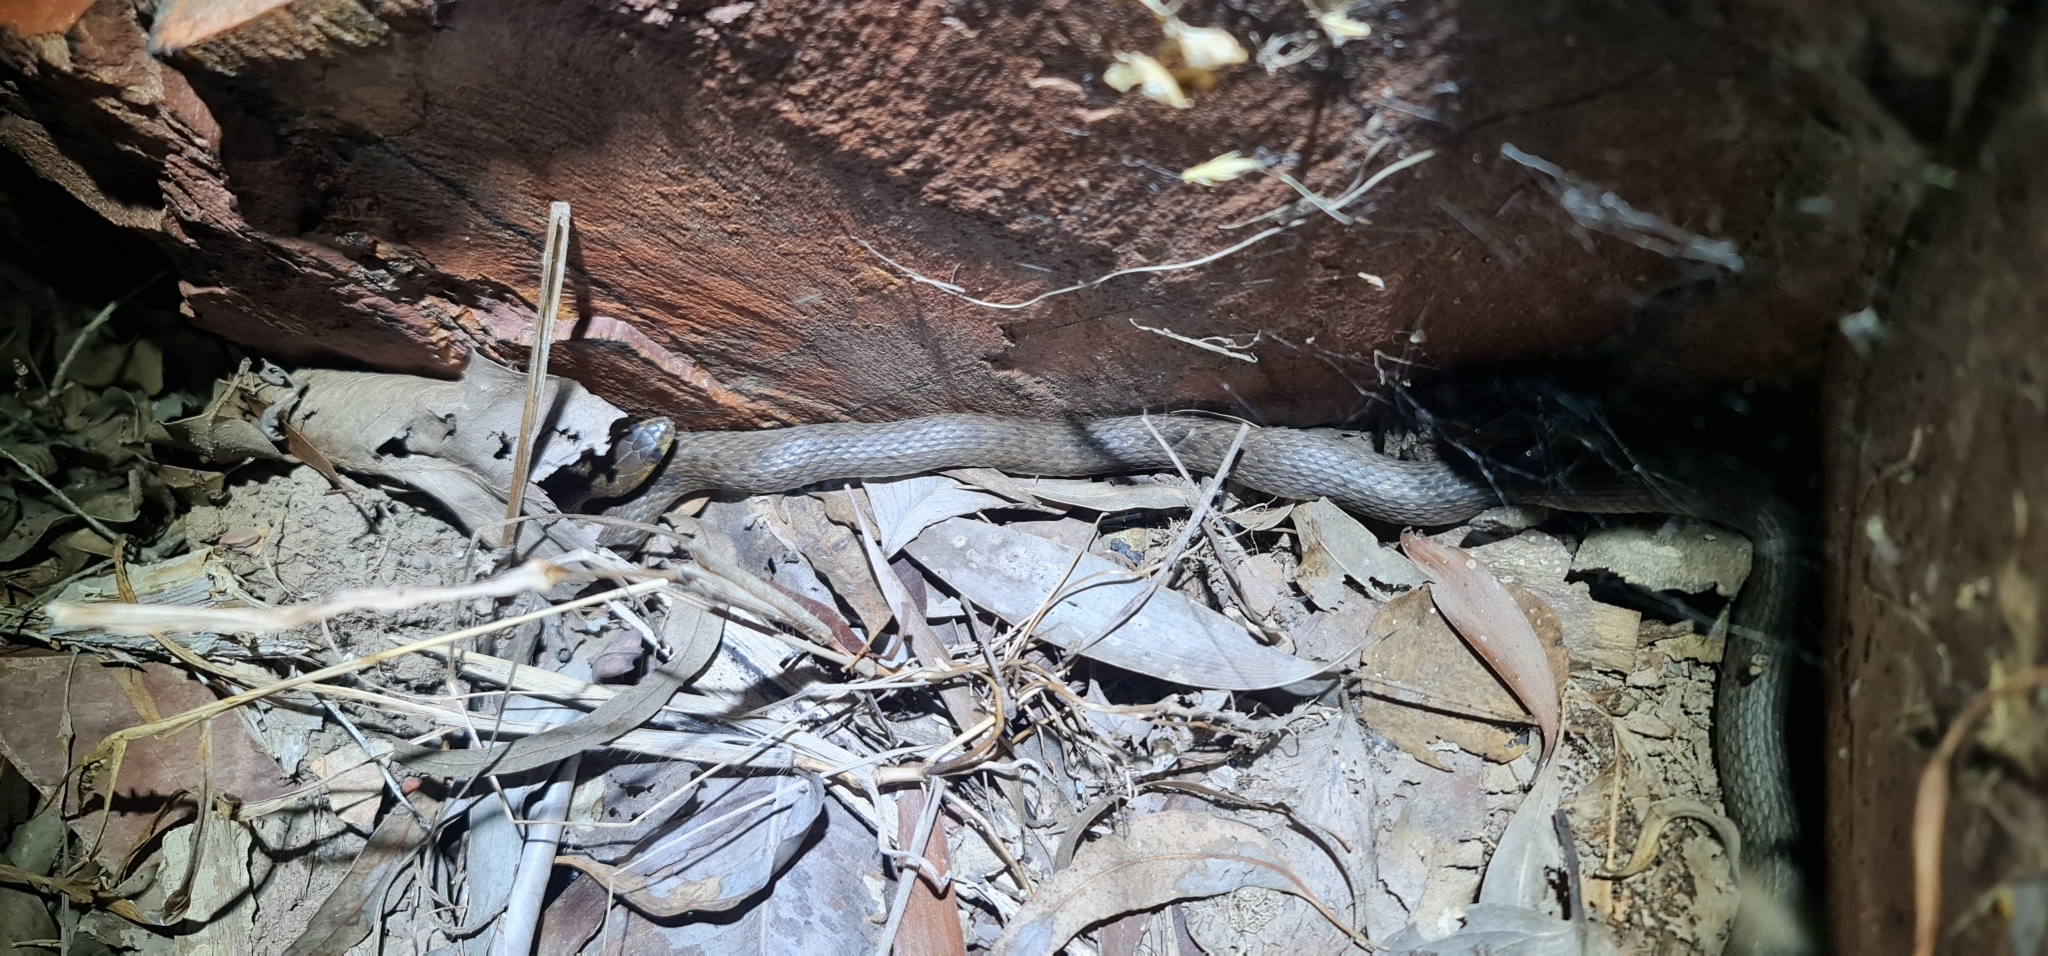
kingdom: Animalia
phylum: Chordata
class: Squamata
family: Colubridae
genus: Tropidonophis
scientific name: Tropidonophis mairii
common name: Common keelback
